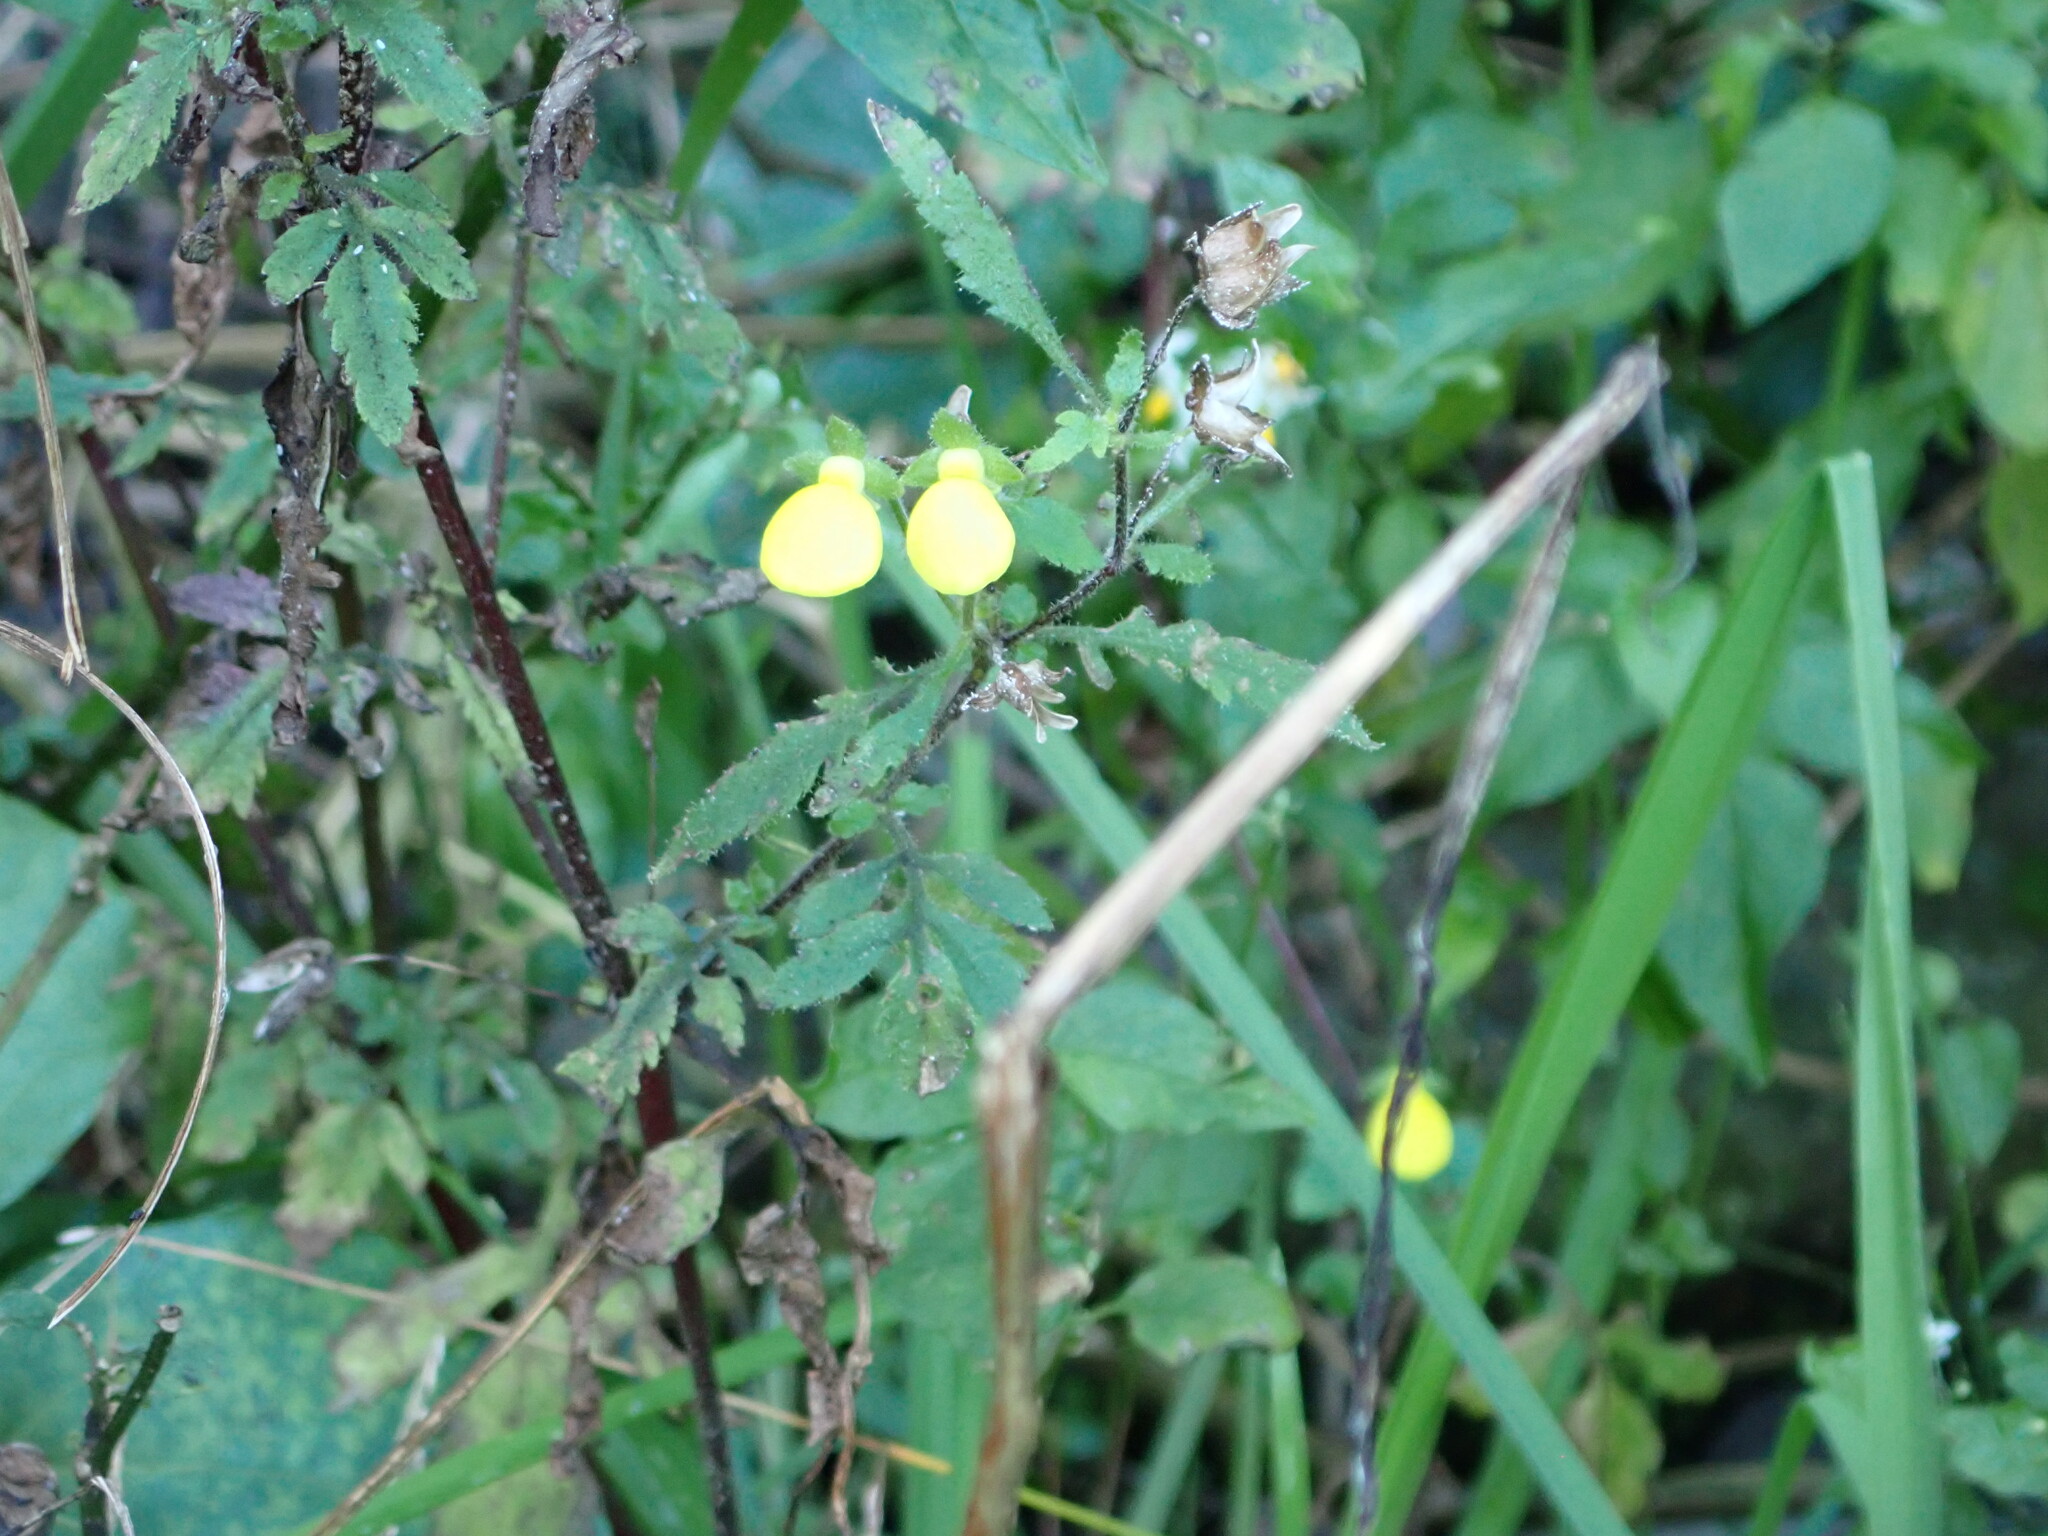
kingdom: Plantae
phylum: Tracheophyta
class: Magnoliopsida
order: Lamiales
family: Calceolariaceae
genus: Calceolaria
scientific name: Calceolaria tripartita
